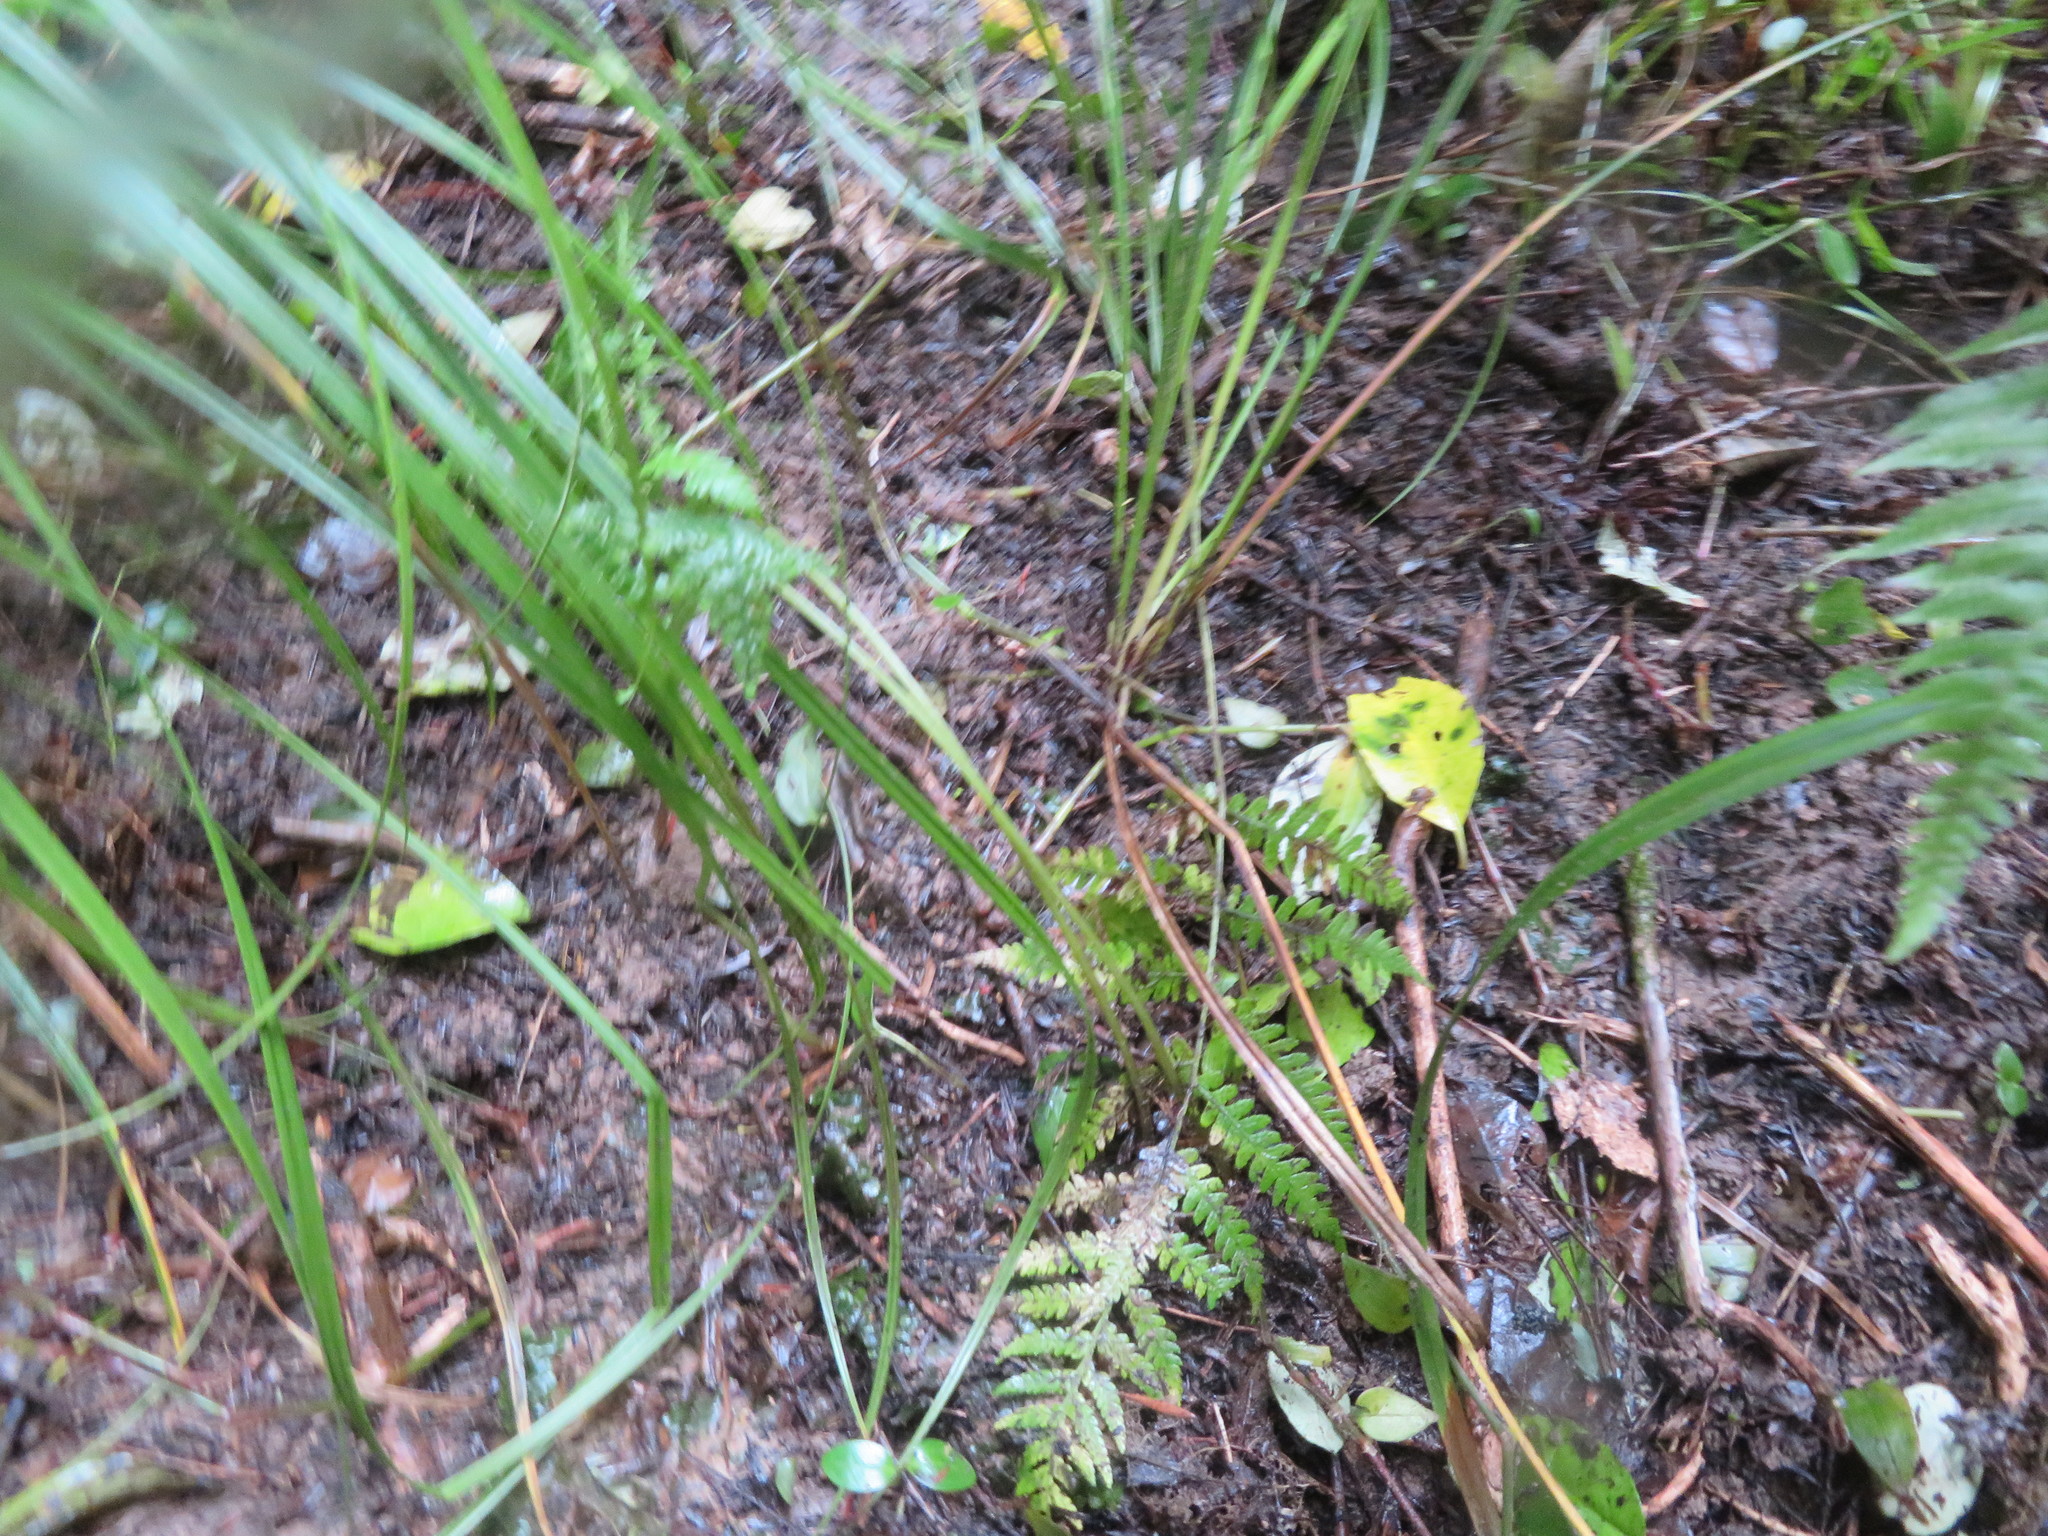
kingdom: Plantae
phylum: Tracheophyta
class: Polypodiopsida
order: Polypodiales
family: Athyriaceae
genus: Diplazium
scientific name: Diplazium congruum
